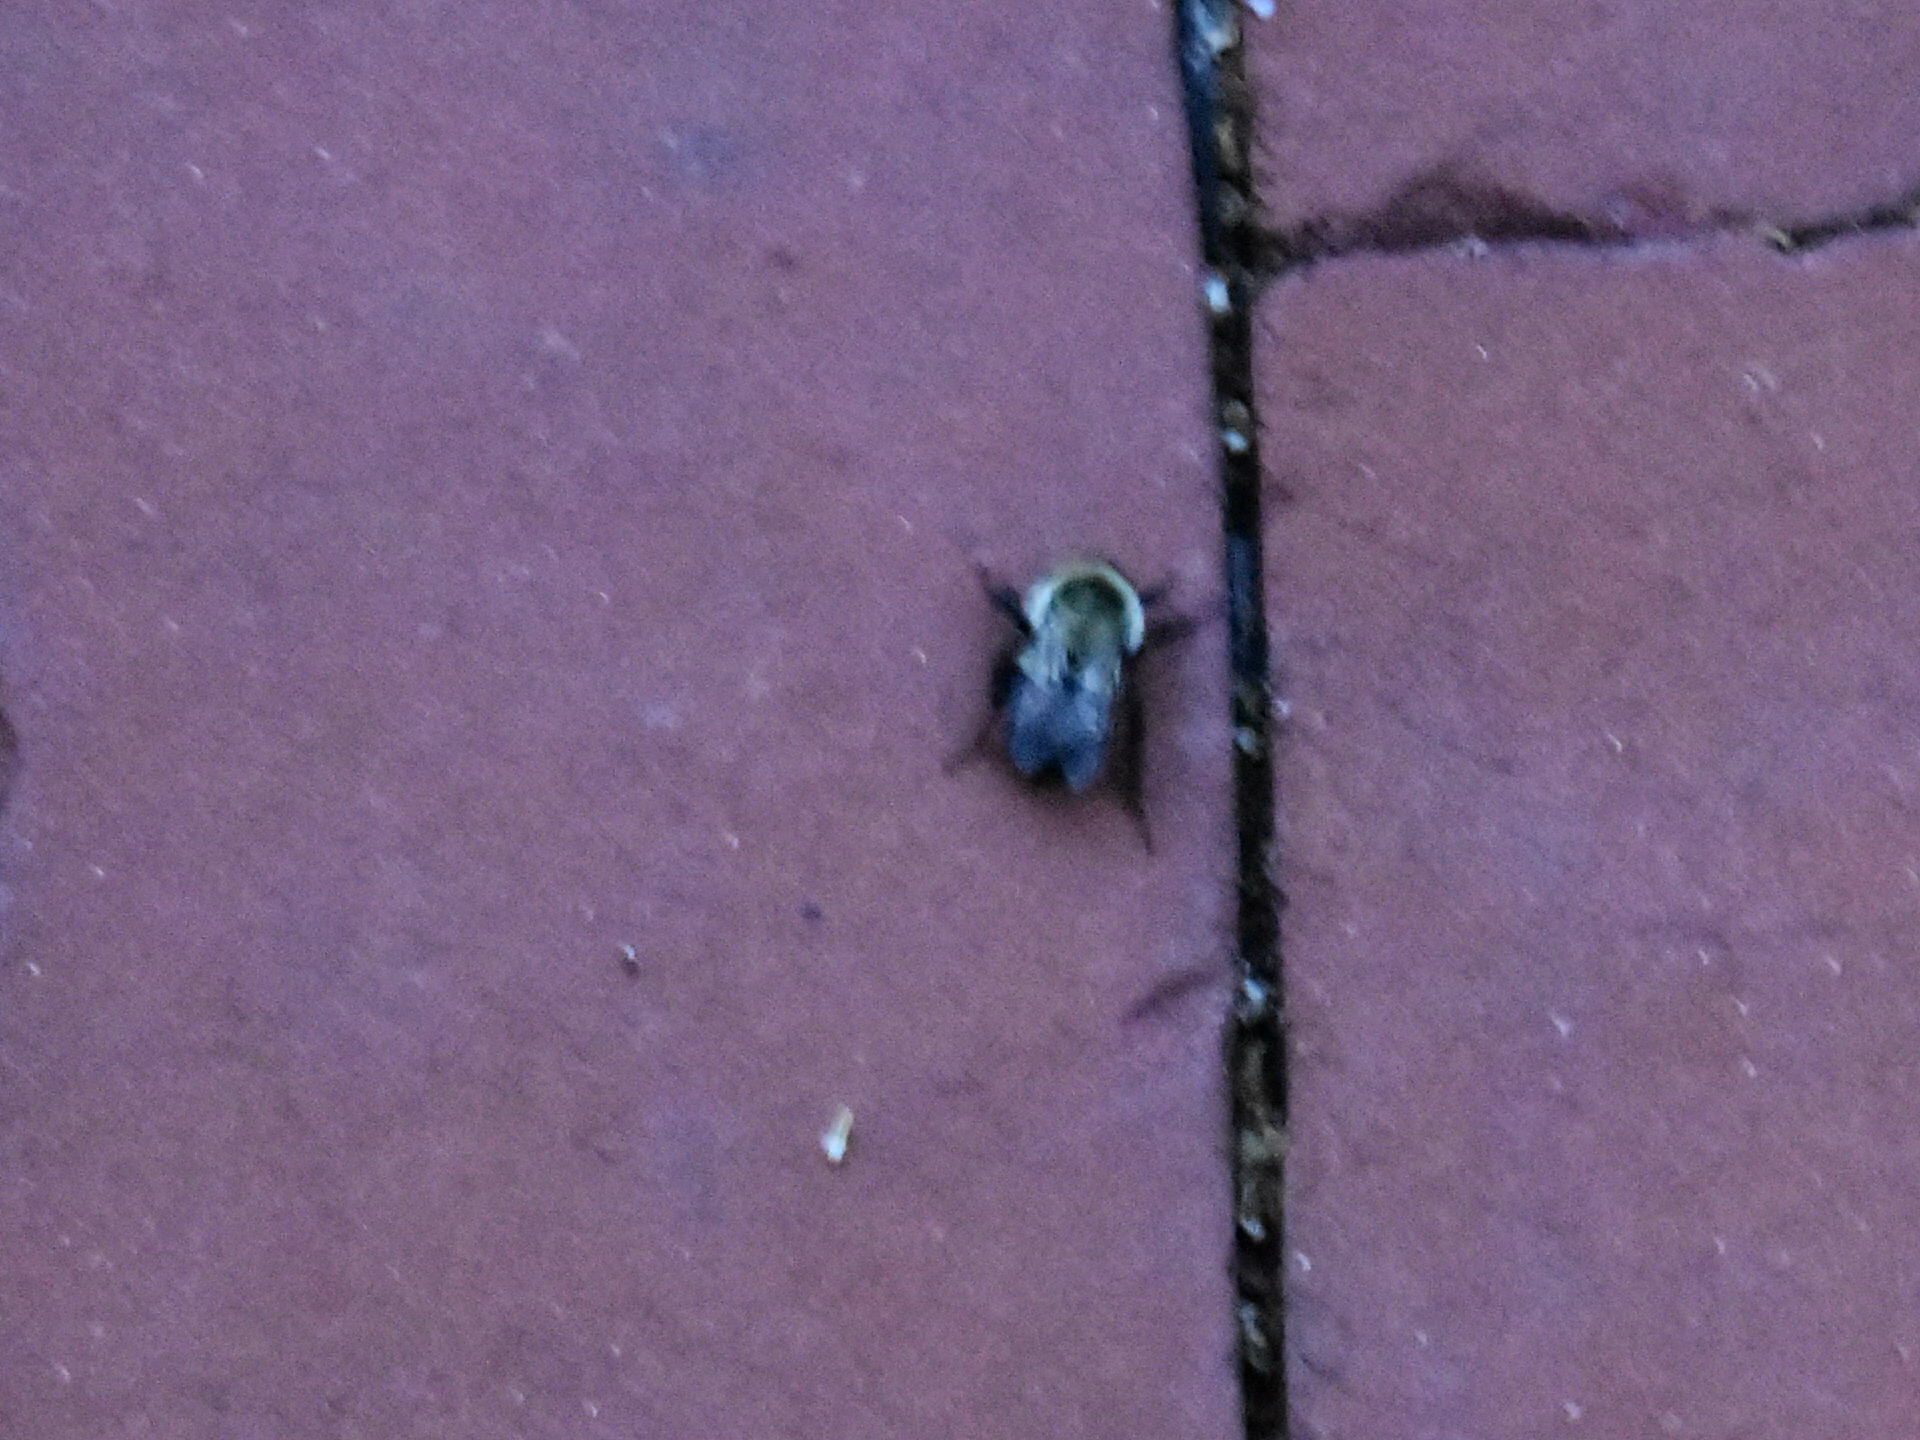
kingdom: Animalia
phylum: Arthropoda
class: Insecta
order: Hymenoptera
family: Apidae
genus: Bombus
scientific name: Bombus impatiens
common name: Common eastern bumble bee
